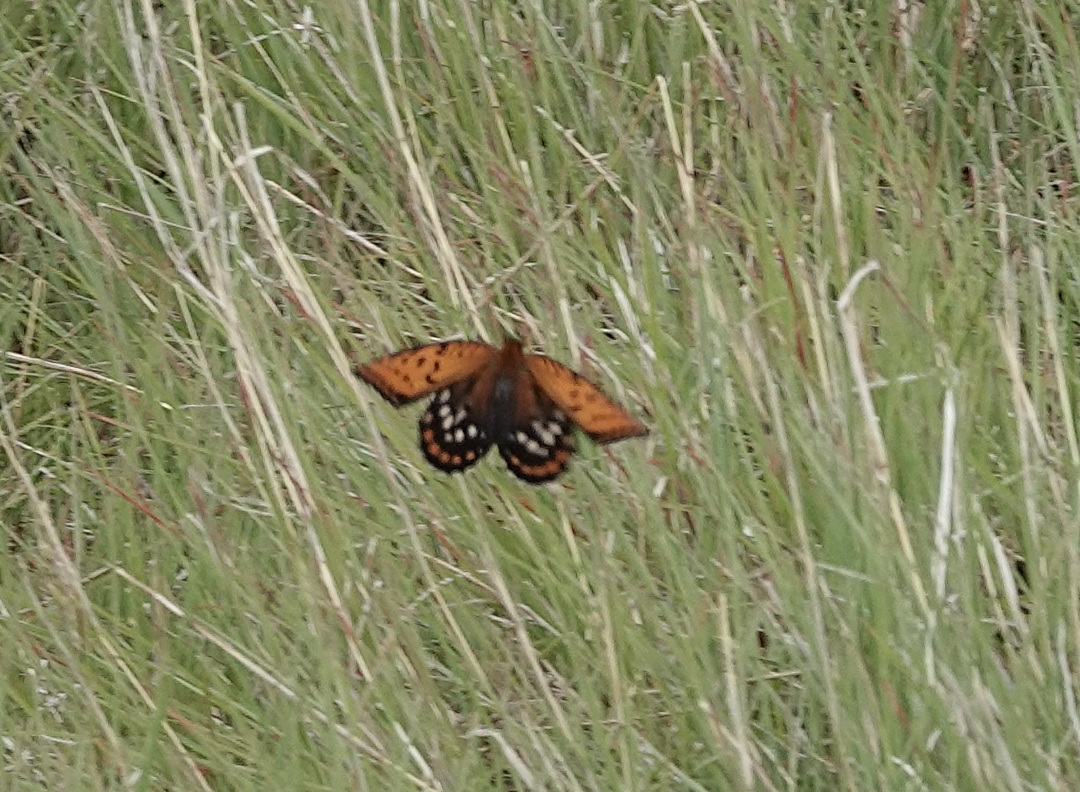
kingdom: Animalia
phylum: Arthropoda
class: Insecta
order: Lepidoptera
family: Nymphalidae
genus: Speyeria
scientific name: Speyeria idalia
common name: Regal fritillary
